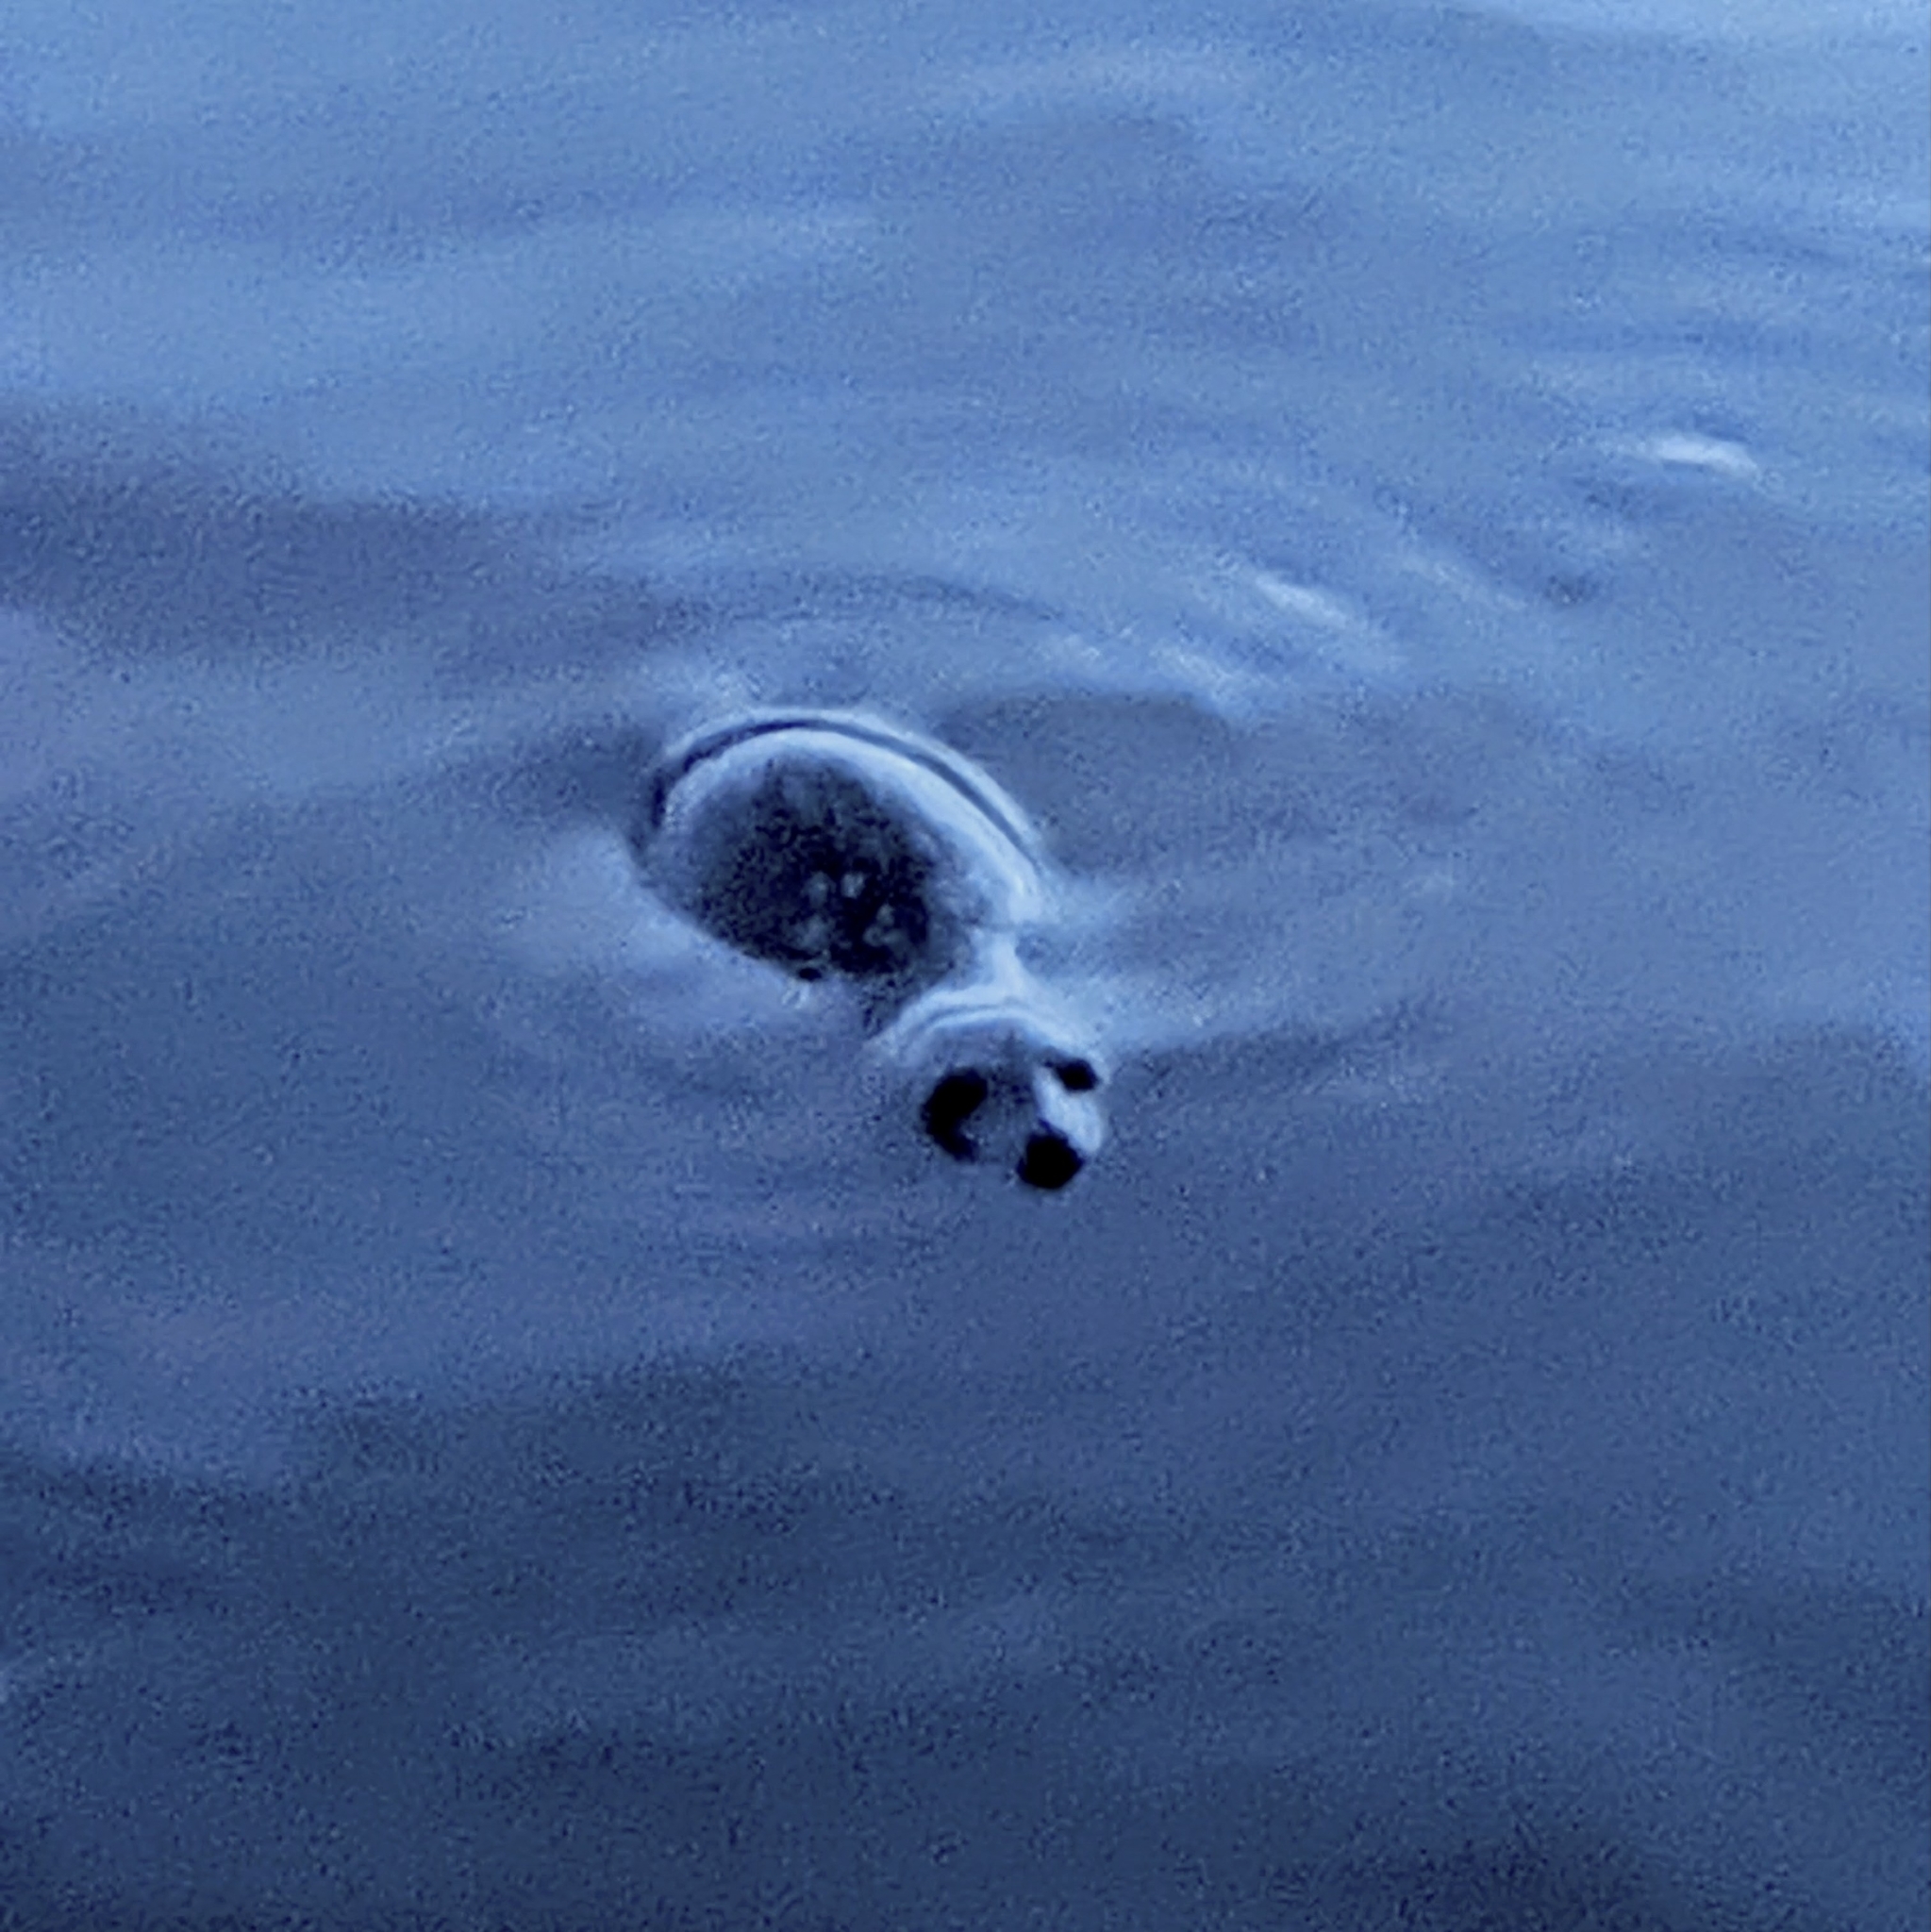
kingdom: Animalia
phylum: Chordata
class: Mammalia
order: Carnivora
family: Phocidae
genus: Phoca
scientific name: Phoca vitulina
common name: Harbor seal
